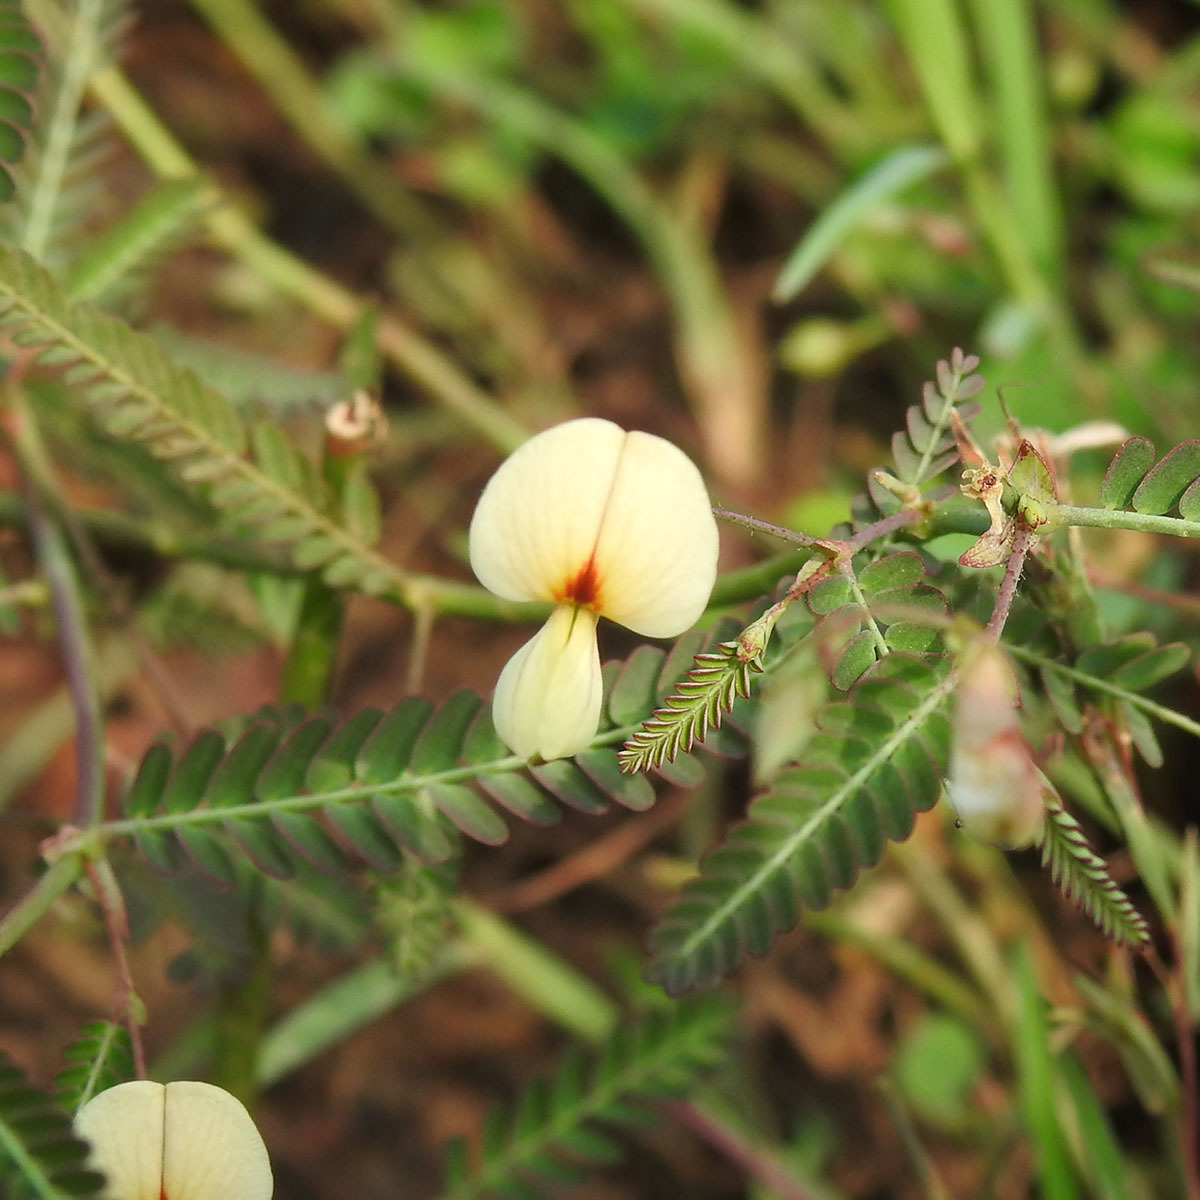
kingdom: Plantae
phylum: Tracheophyta
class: Magnoliopsida
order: Fabales
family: Fabaceae
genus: Aeschynomene
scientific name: Aeschynomene indica
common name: Indian jointvetch
